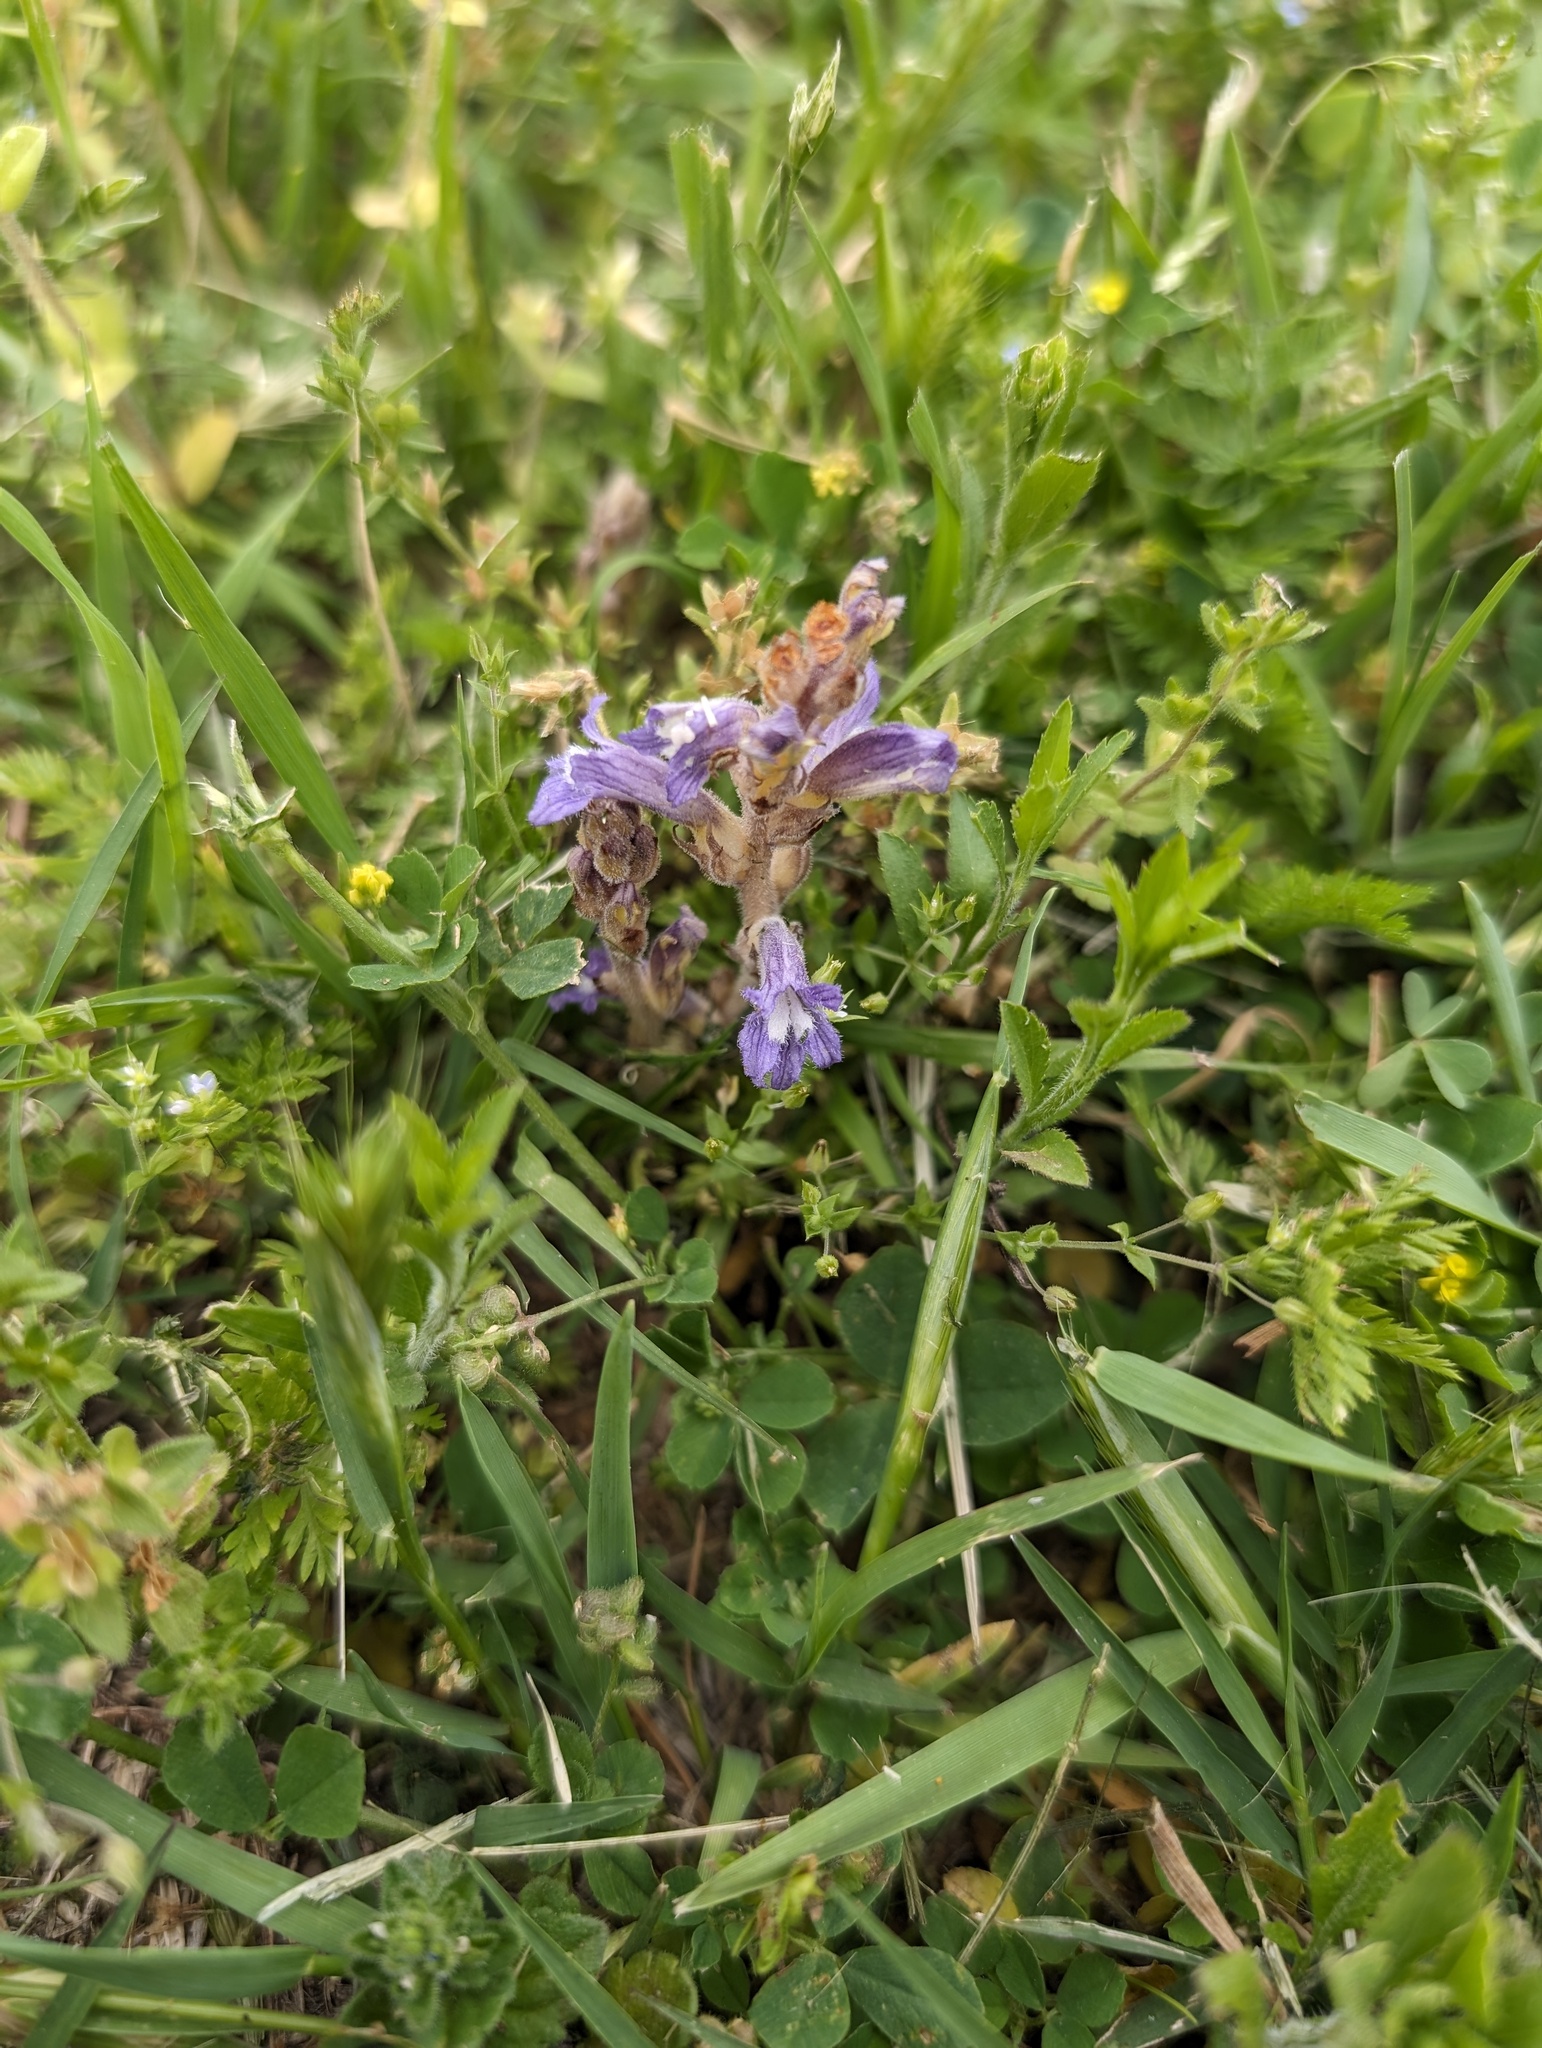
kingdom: Plantae
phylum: Tracheophyta
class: Magnoliopsida
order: Lamiales
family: Orobanchaceae
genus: Phelipanche
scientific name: Phelipanche mutelii
